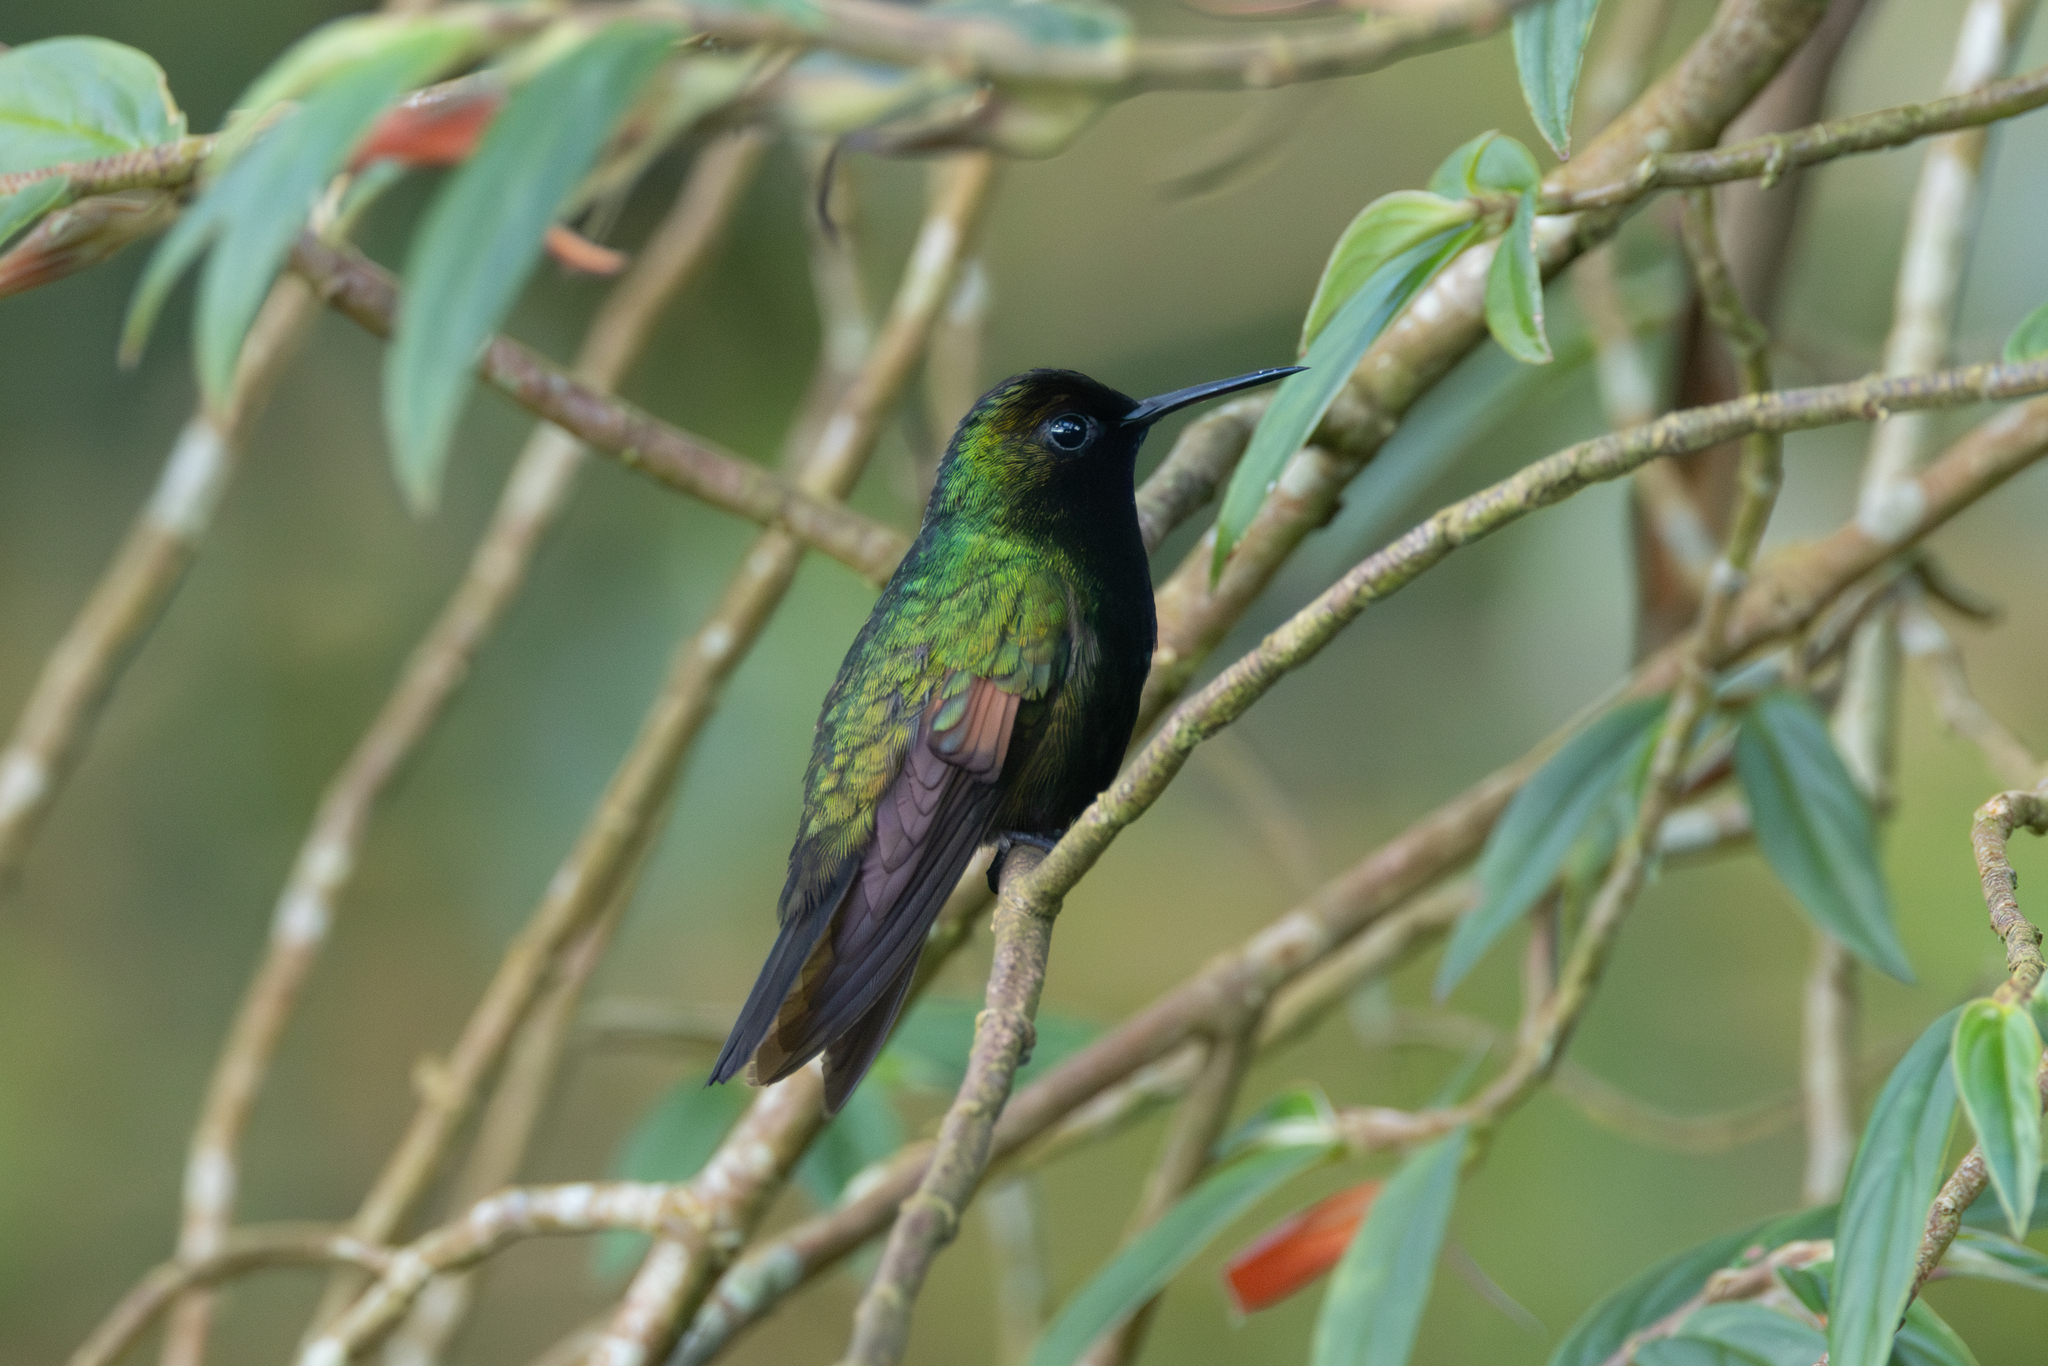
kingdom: Animalia
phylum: Chordata
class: Aves
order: Apodiformes
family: Trochilidae
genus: Eupherusa
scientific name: Eupherusa nigriventris
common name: Black-bellied hummingbird
